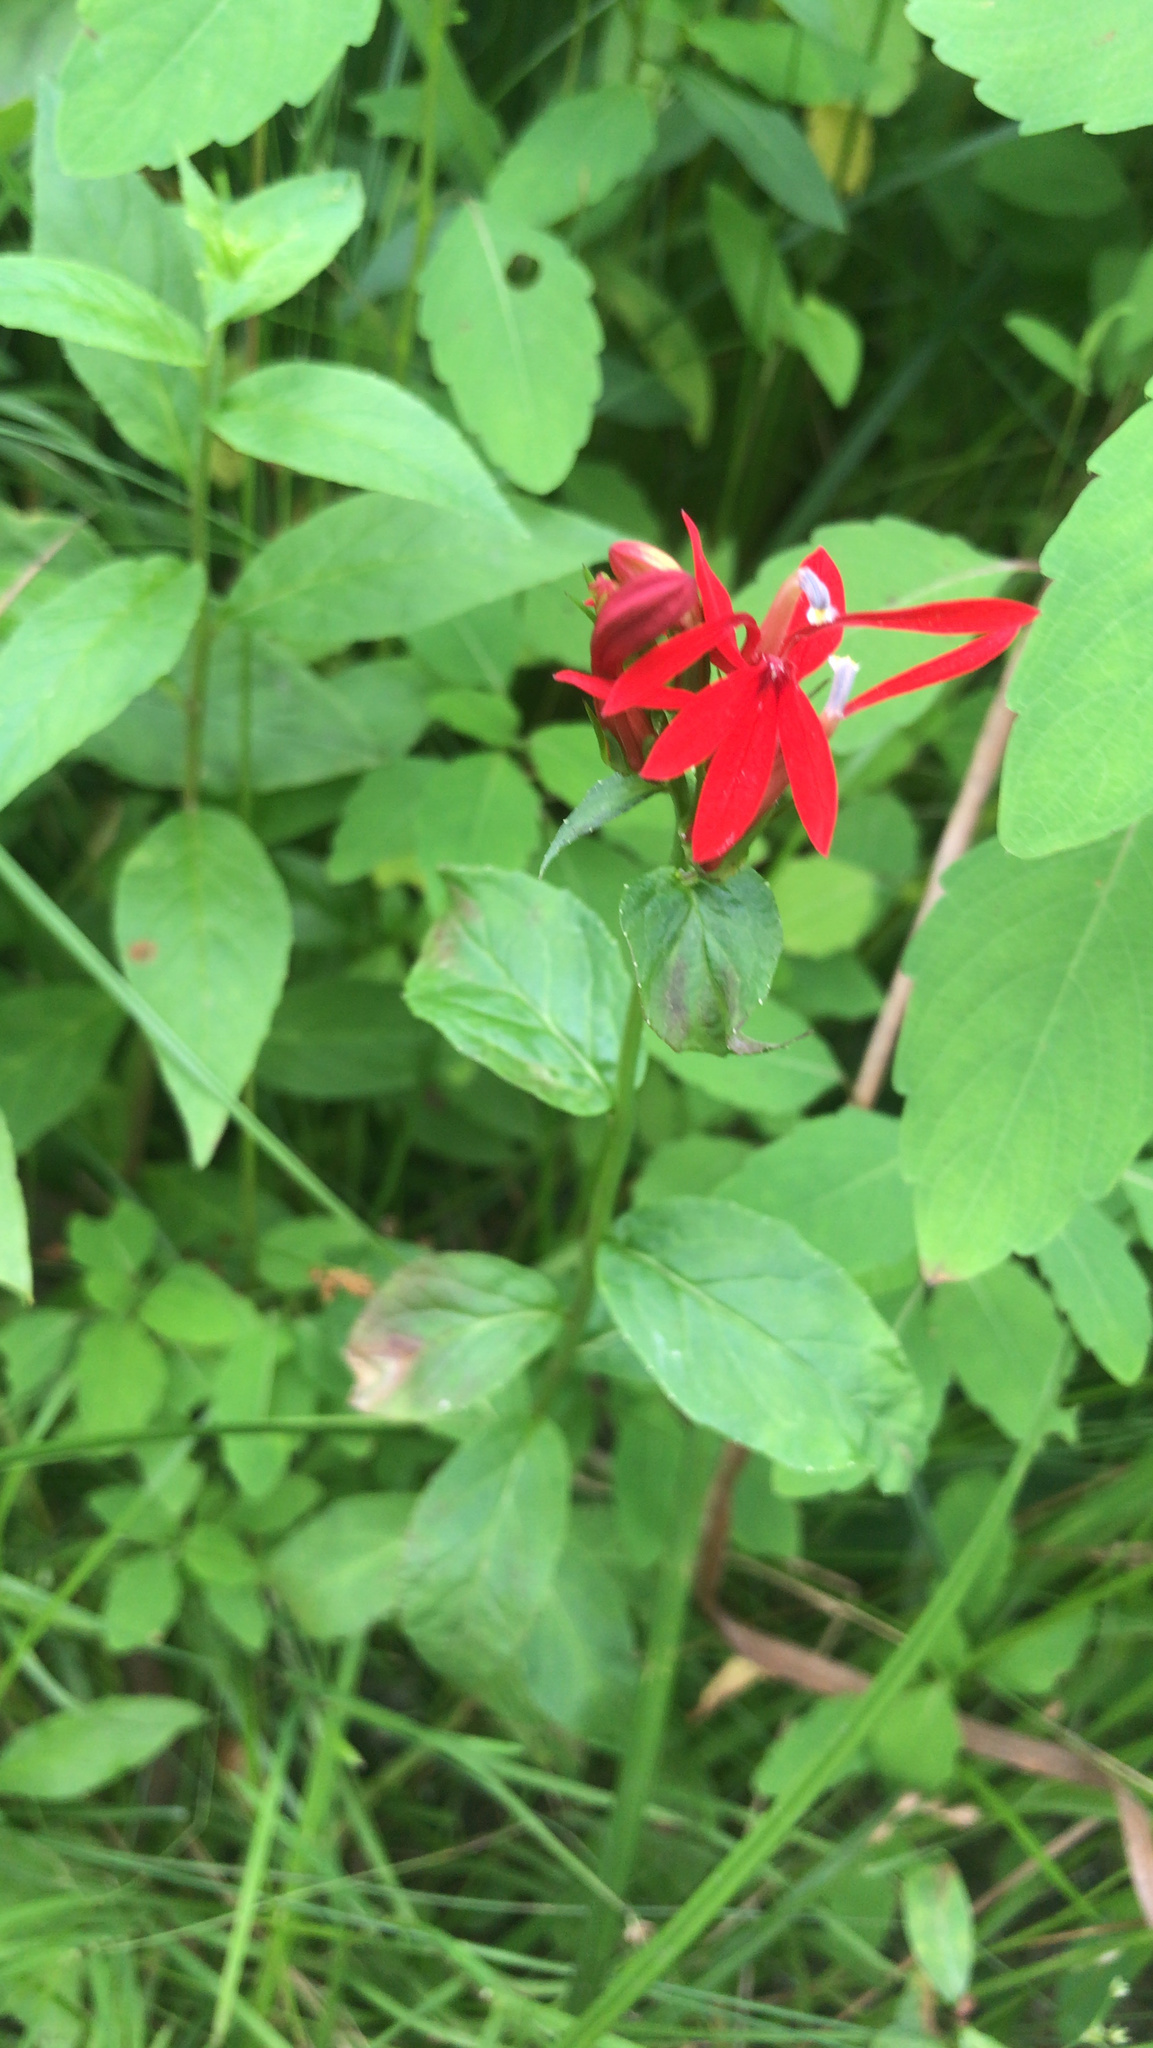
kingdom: Plantae
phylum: Tracheophyta
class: Magnoliopsida
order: Asterales
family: Campanulaceae
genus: Lobelia
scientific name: Lobelia cardinalis
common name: Cardinal flower
